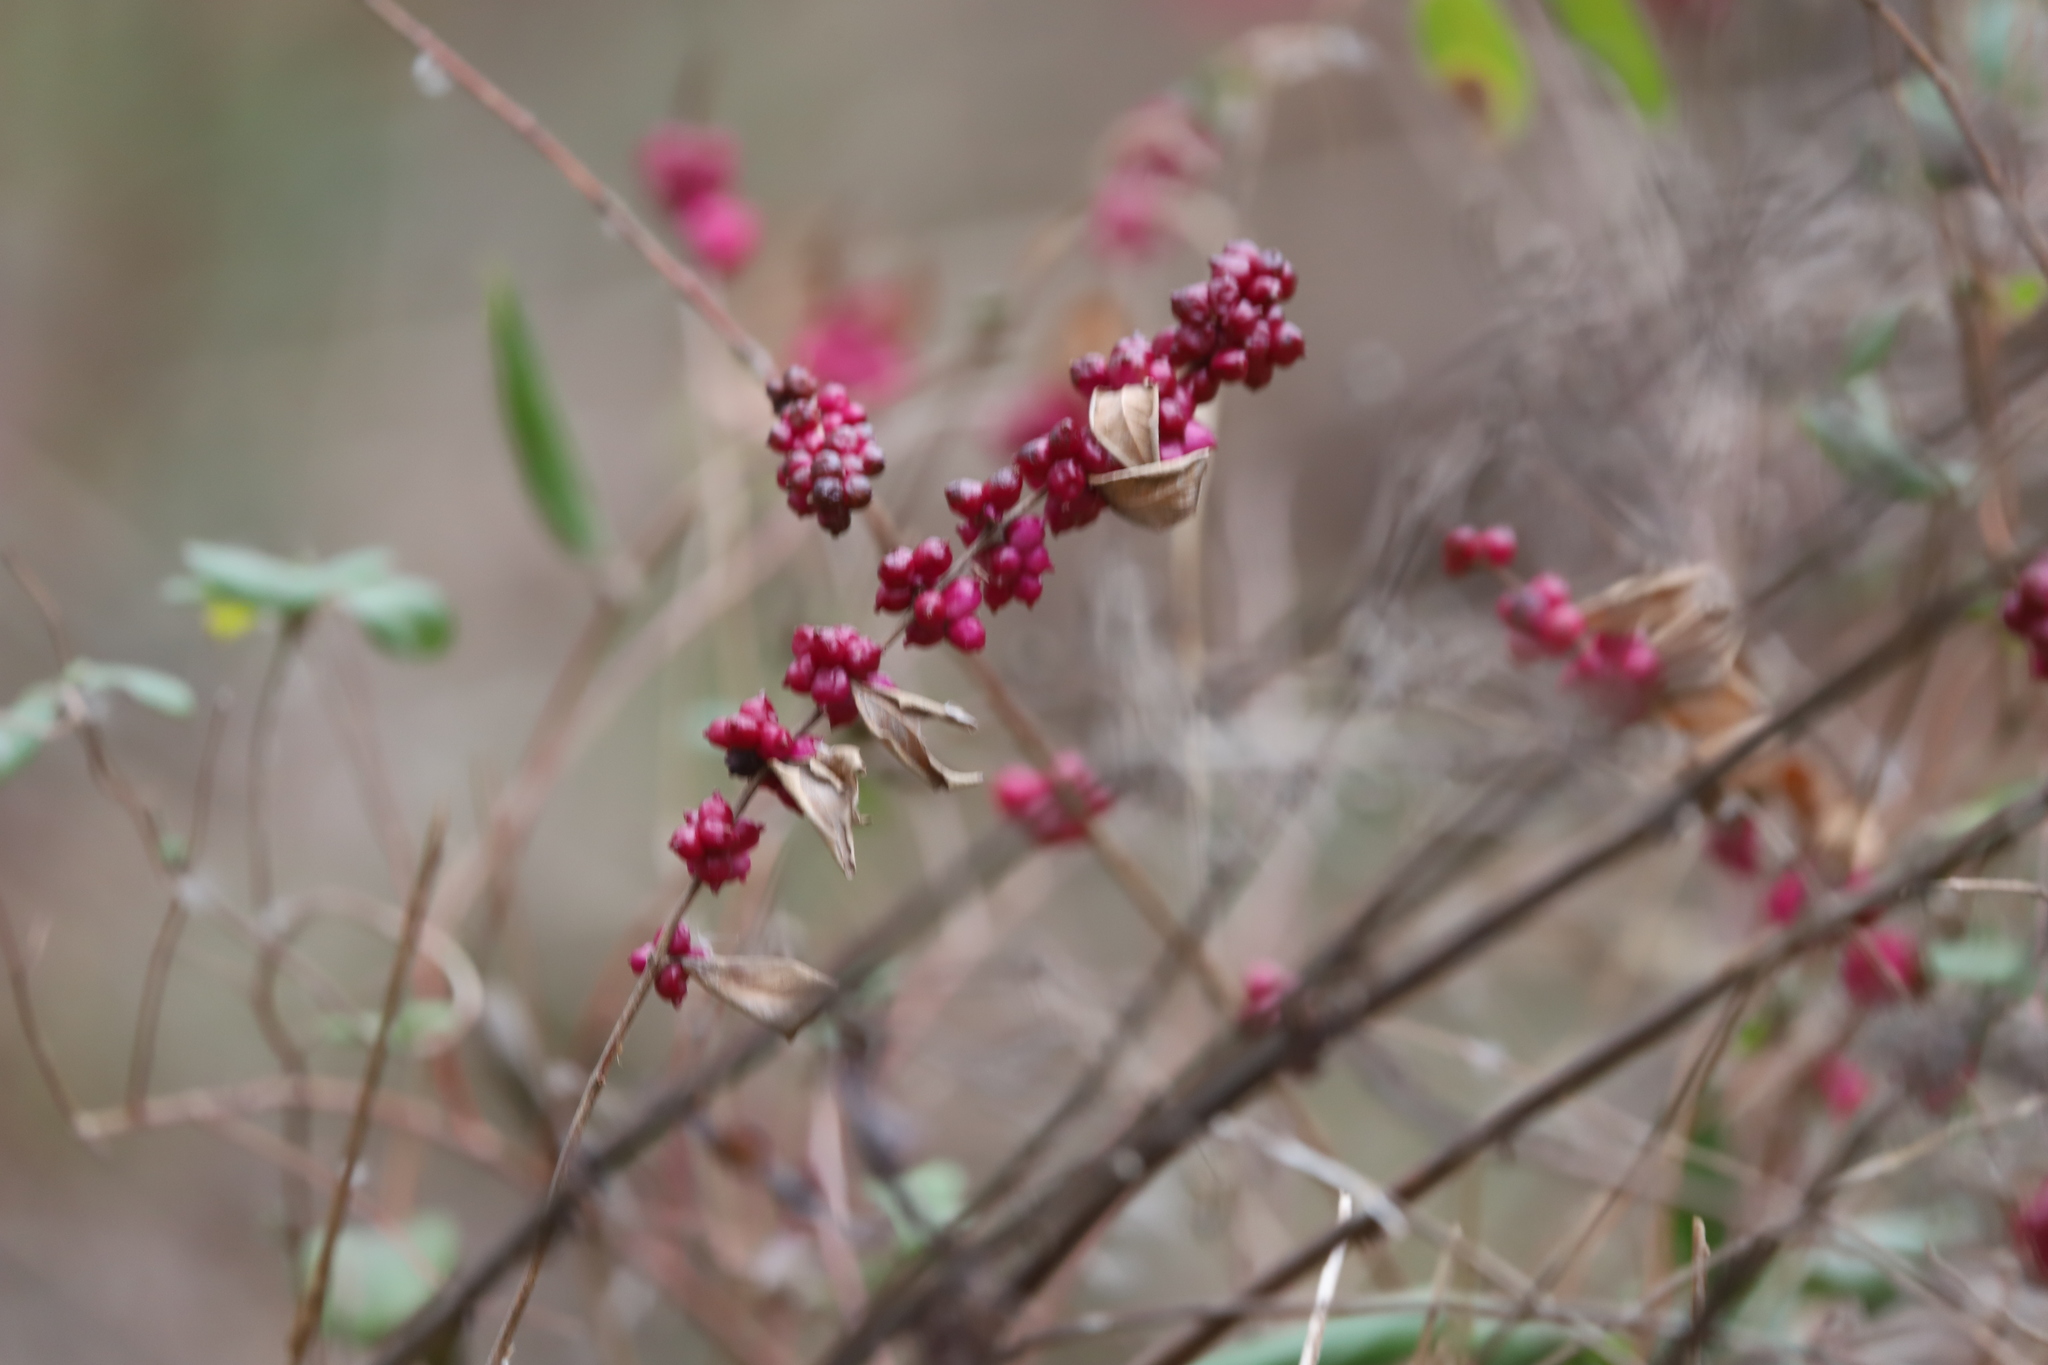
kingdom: Plantae
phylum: Tracheophyta
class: Magnoliopsida
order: Dipsacales
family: Caprifoliaceae
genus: Symphoricarpos
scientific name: Symphoricarpos orbiculatus
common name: Coralberry
